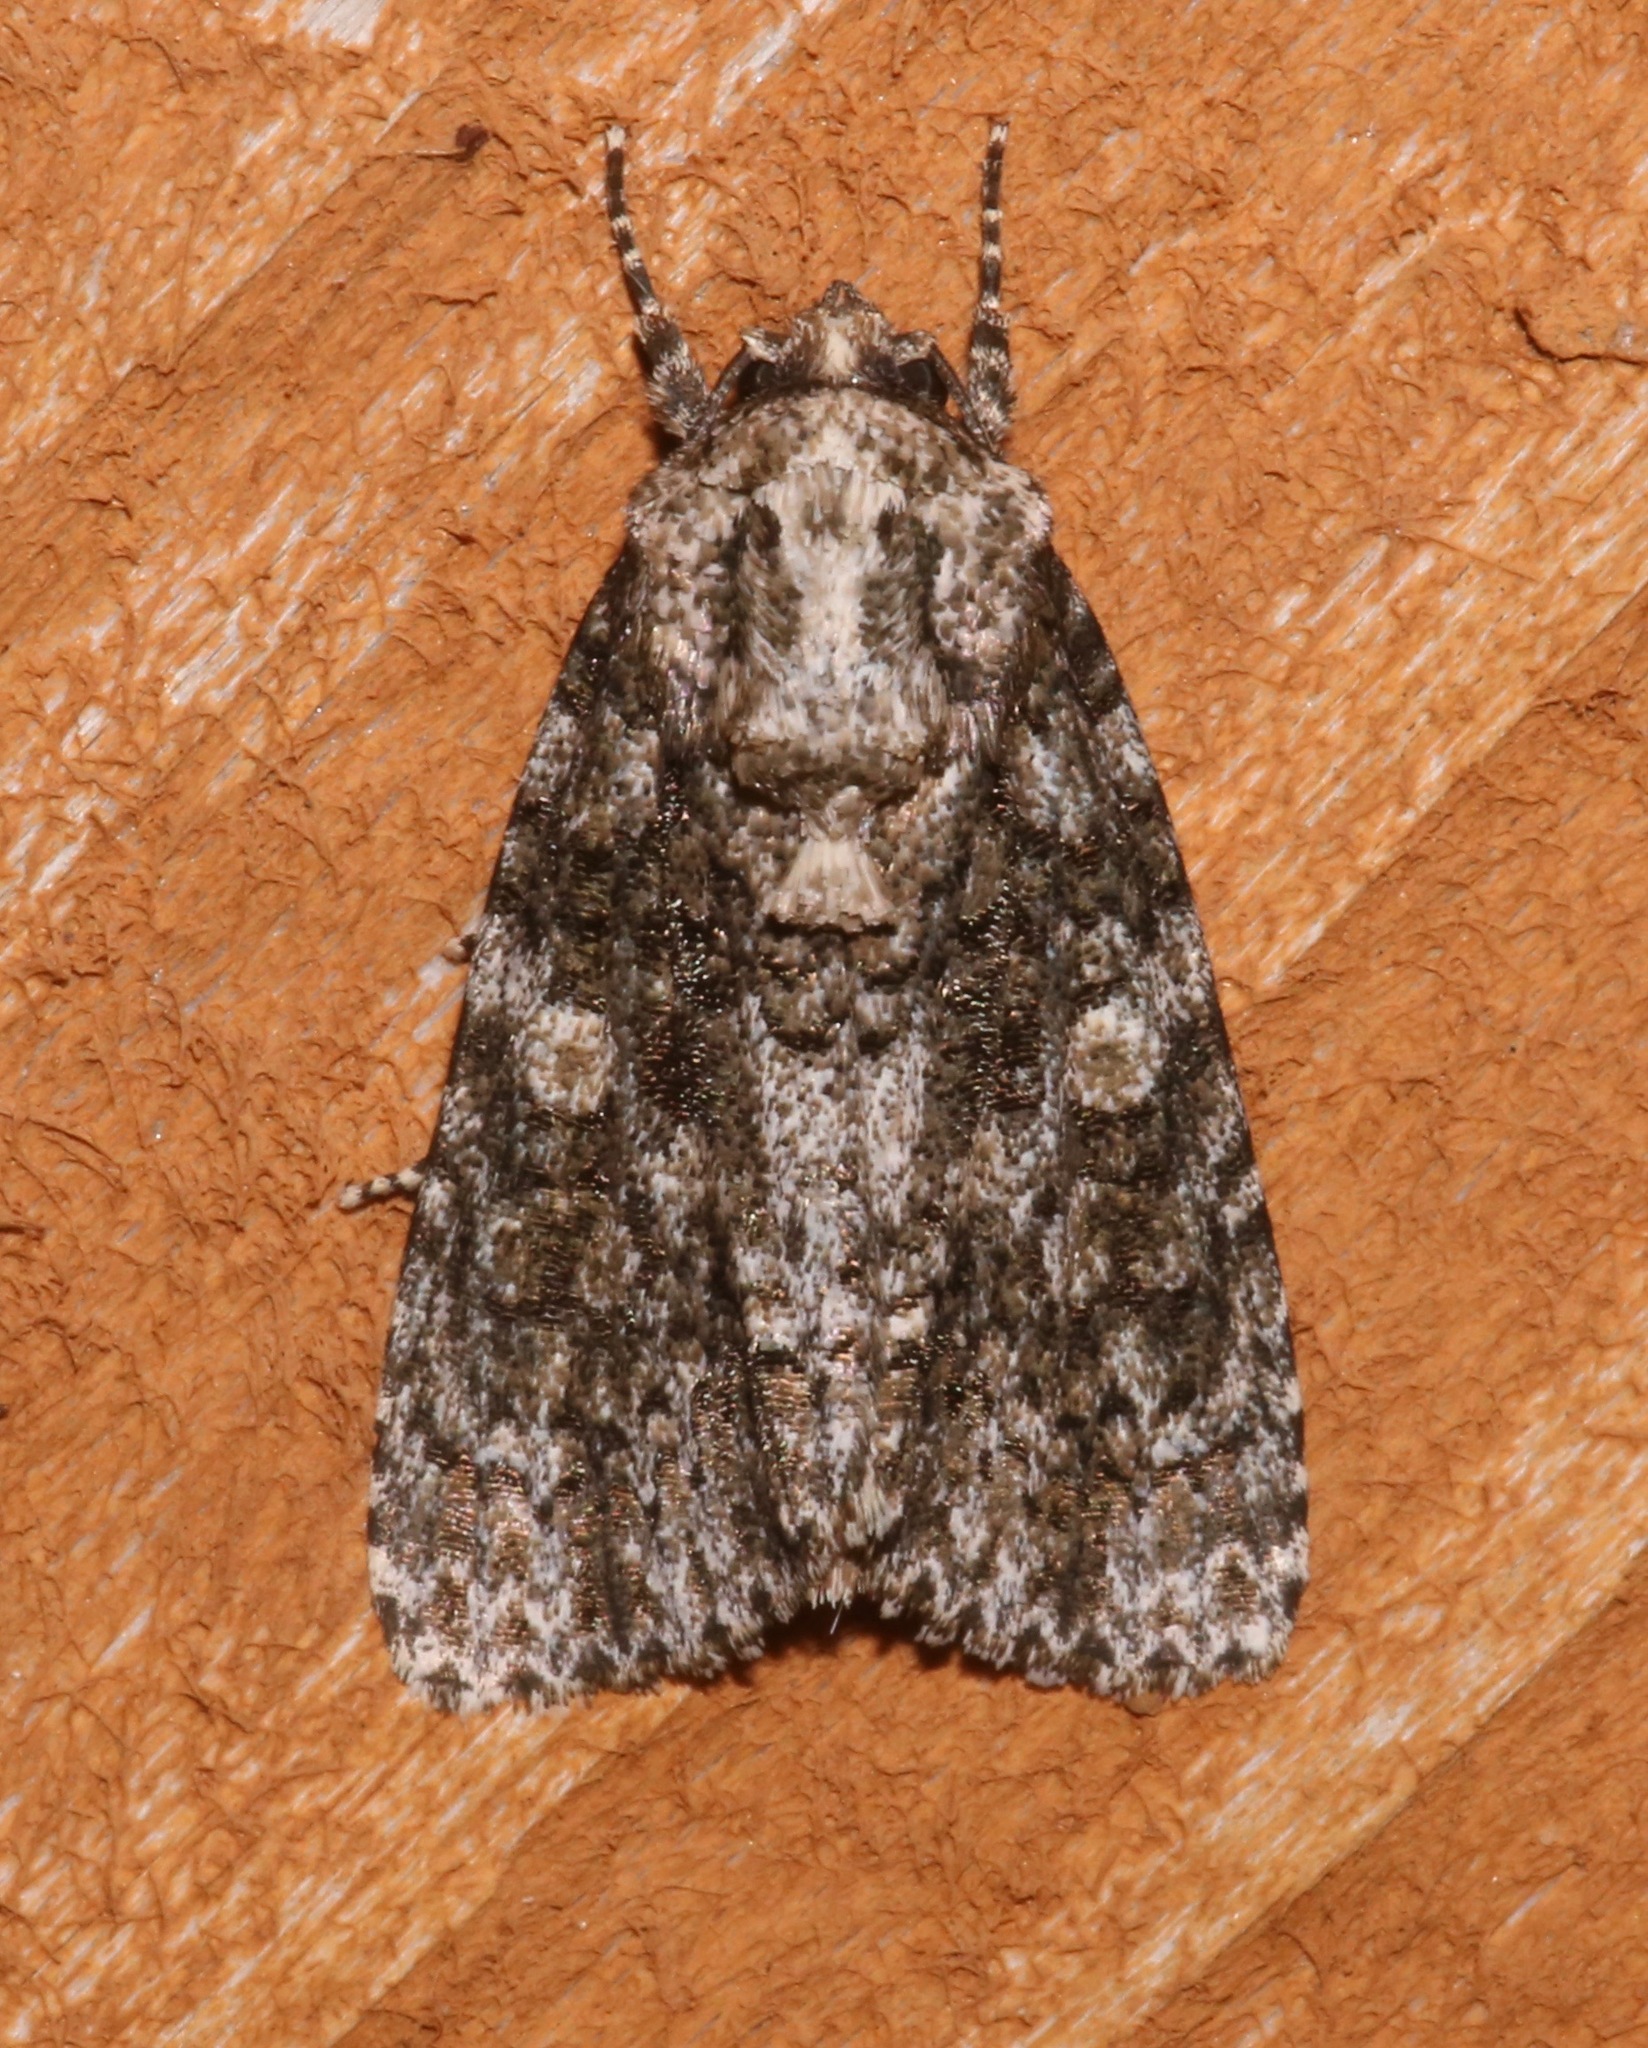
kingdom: Animalia
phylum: Arthropoda
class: Insecta
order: Lepidoptera
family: Noctuidae
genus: Acronicta
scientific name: Acronicta afflicta
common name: Afflicted dagger moth
